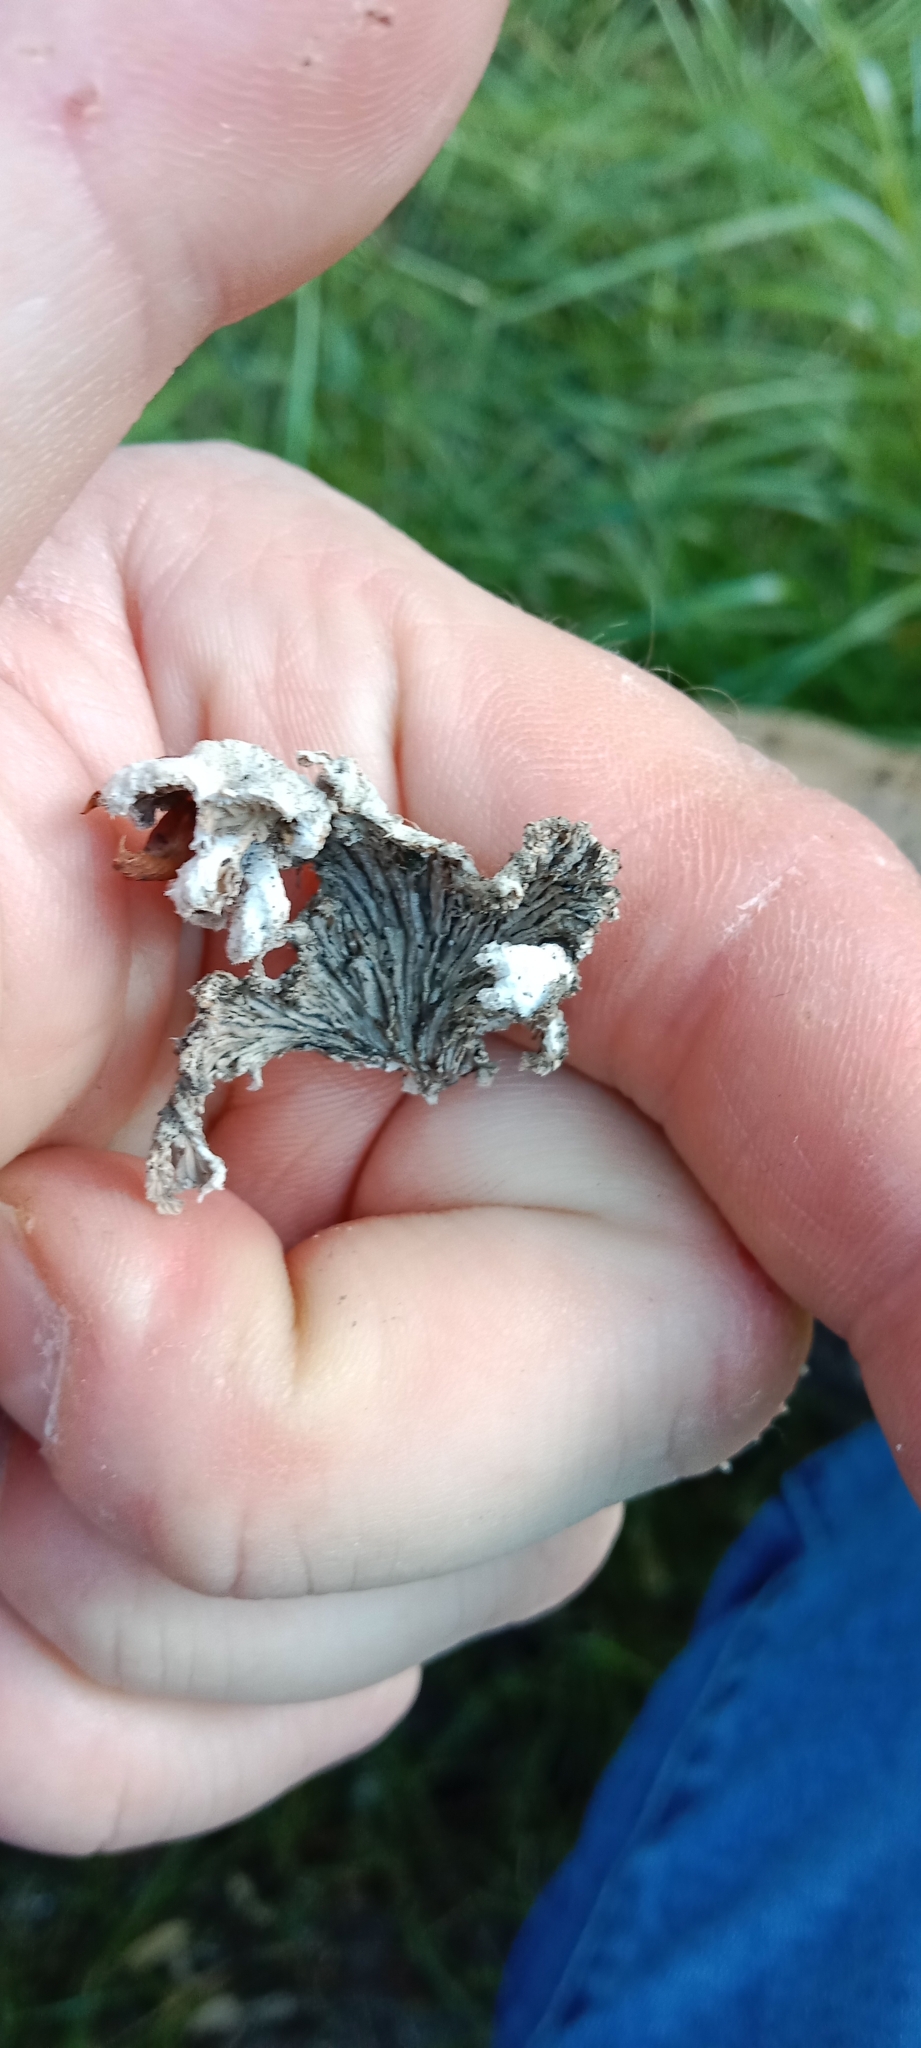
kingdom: Fungi
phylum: Basidiomycota
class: Agaricomycetes
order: Agaricales
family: Schizophyllaceae
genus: Schizophyllum
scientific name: Schizophyllum commune
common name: Common porecrust
